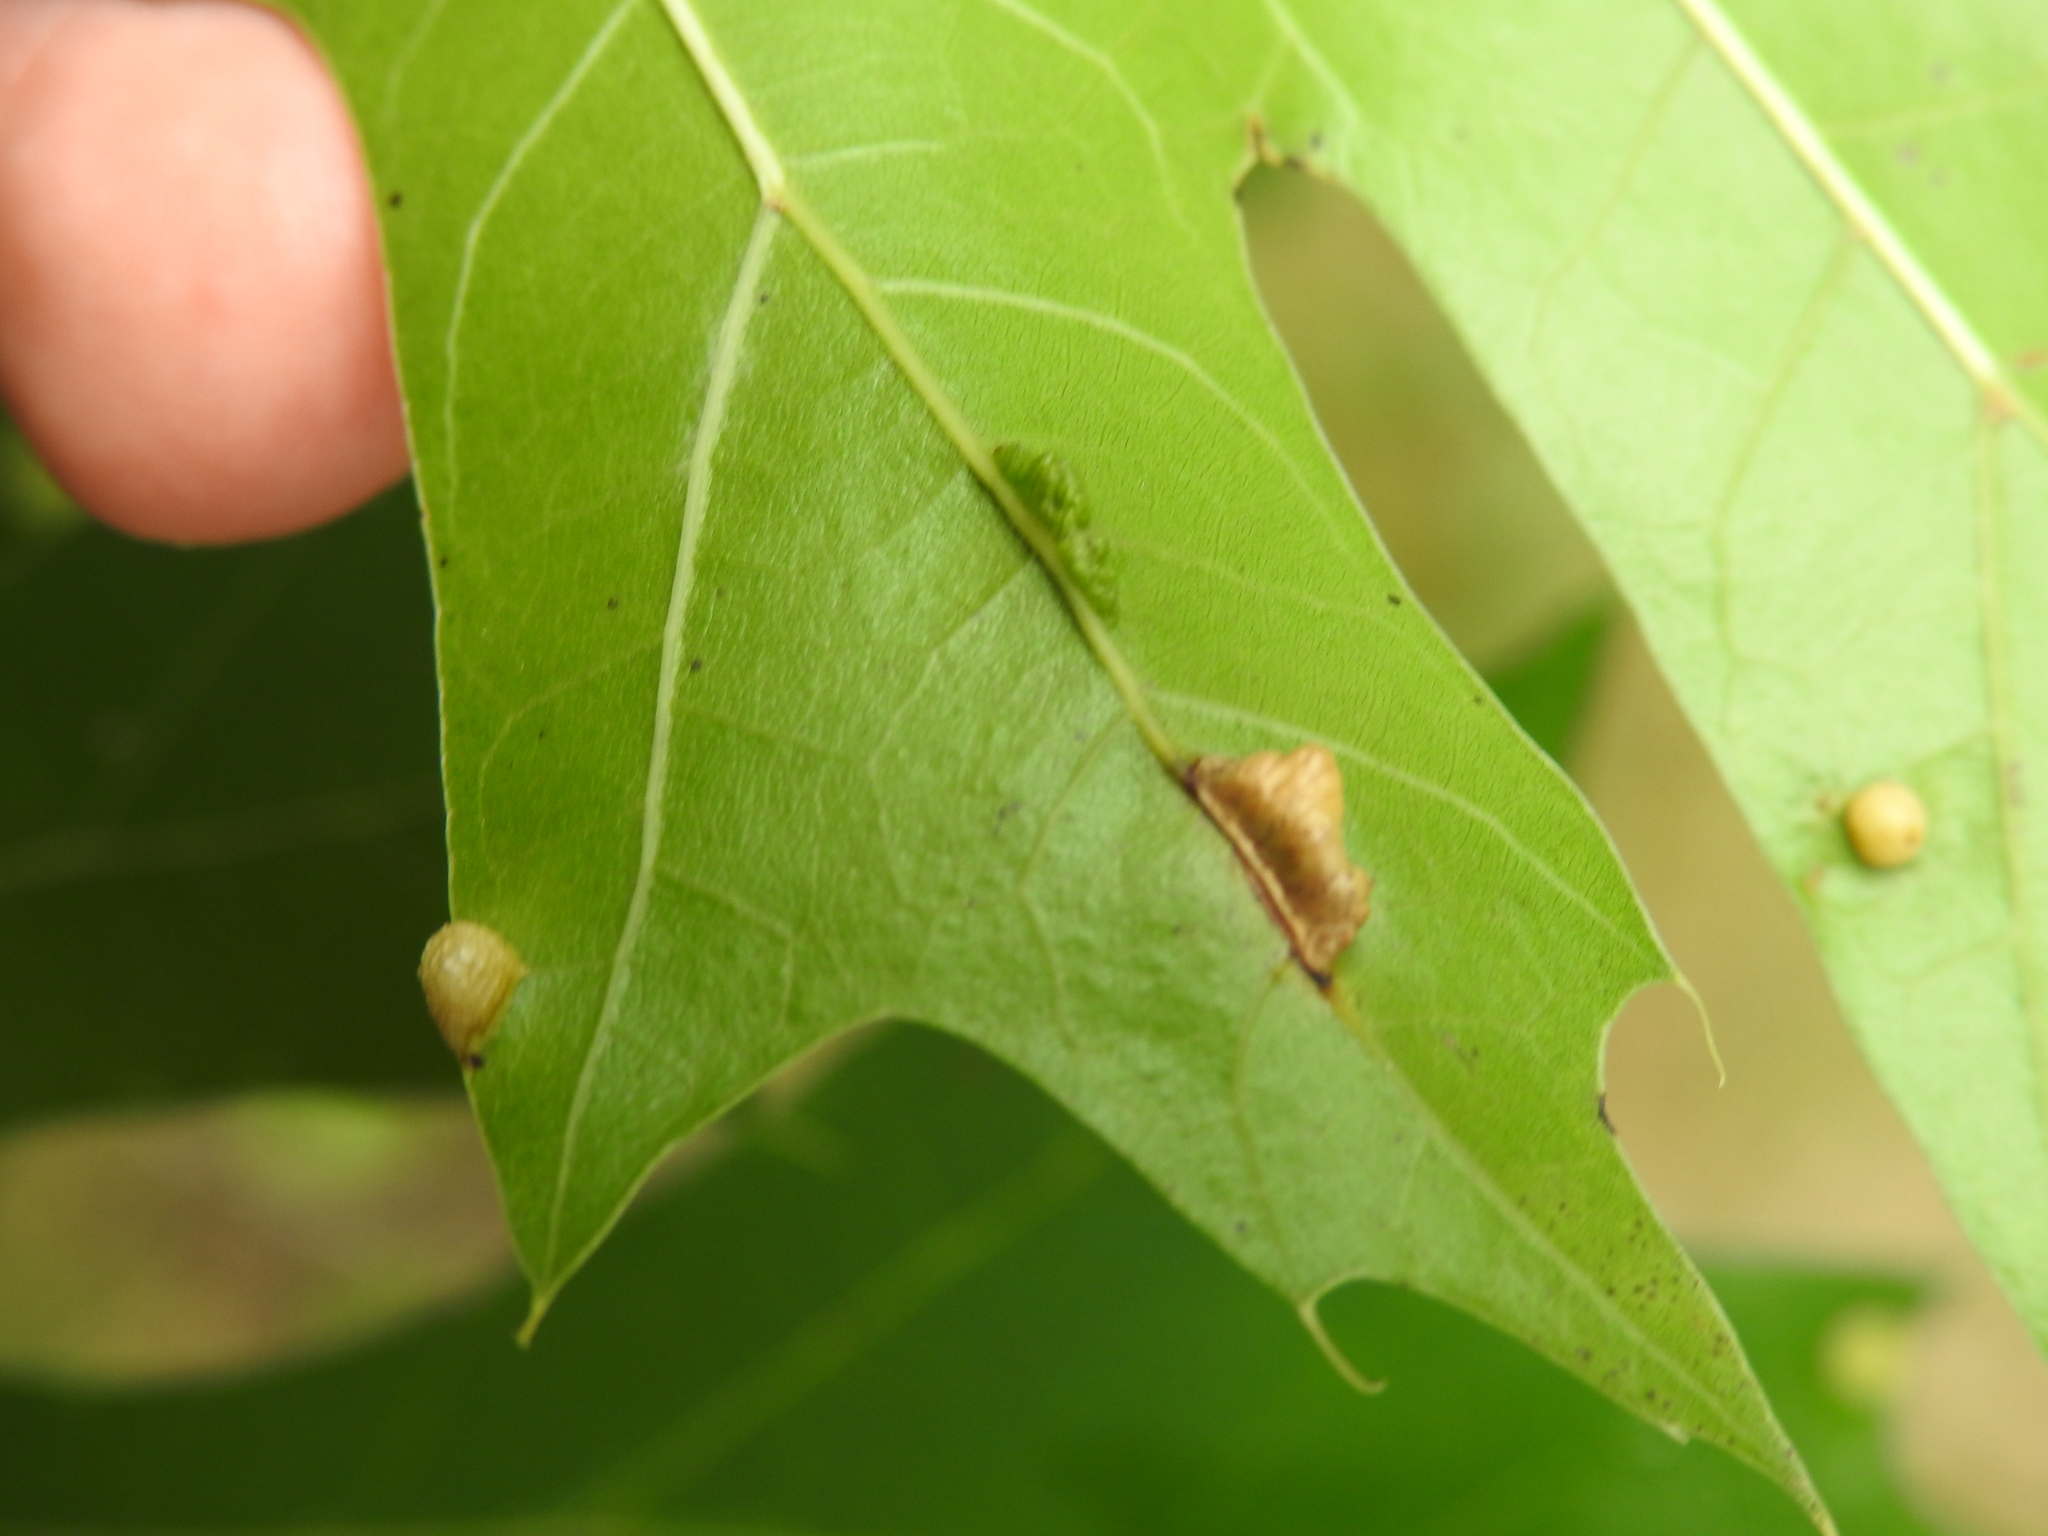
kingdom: Animalia
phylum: Arthropoda
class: Insecta
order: Diptera
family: Cecidomyiidae
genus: Macrodiplosis
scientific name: Macrodiplosis majalis
